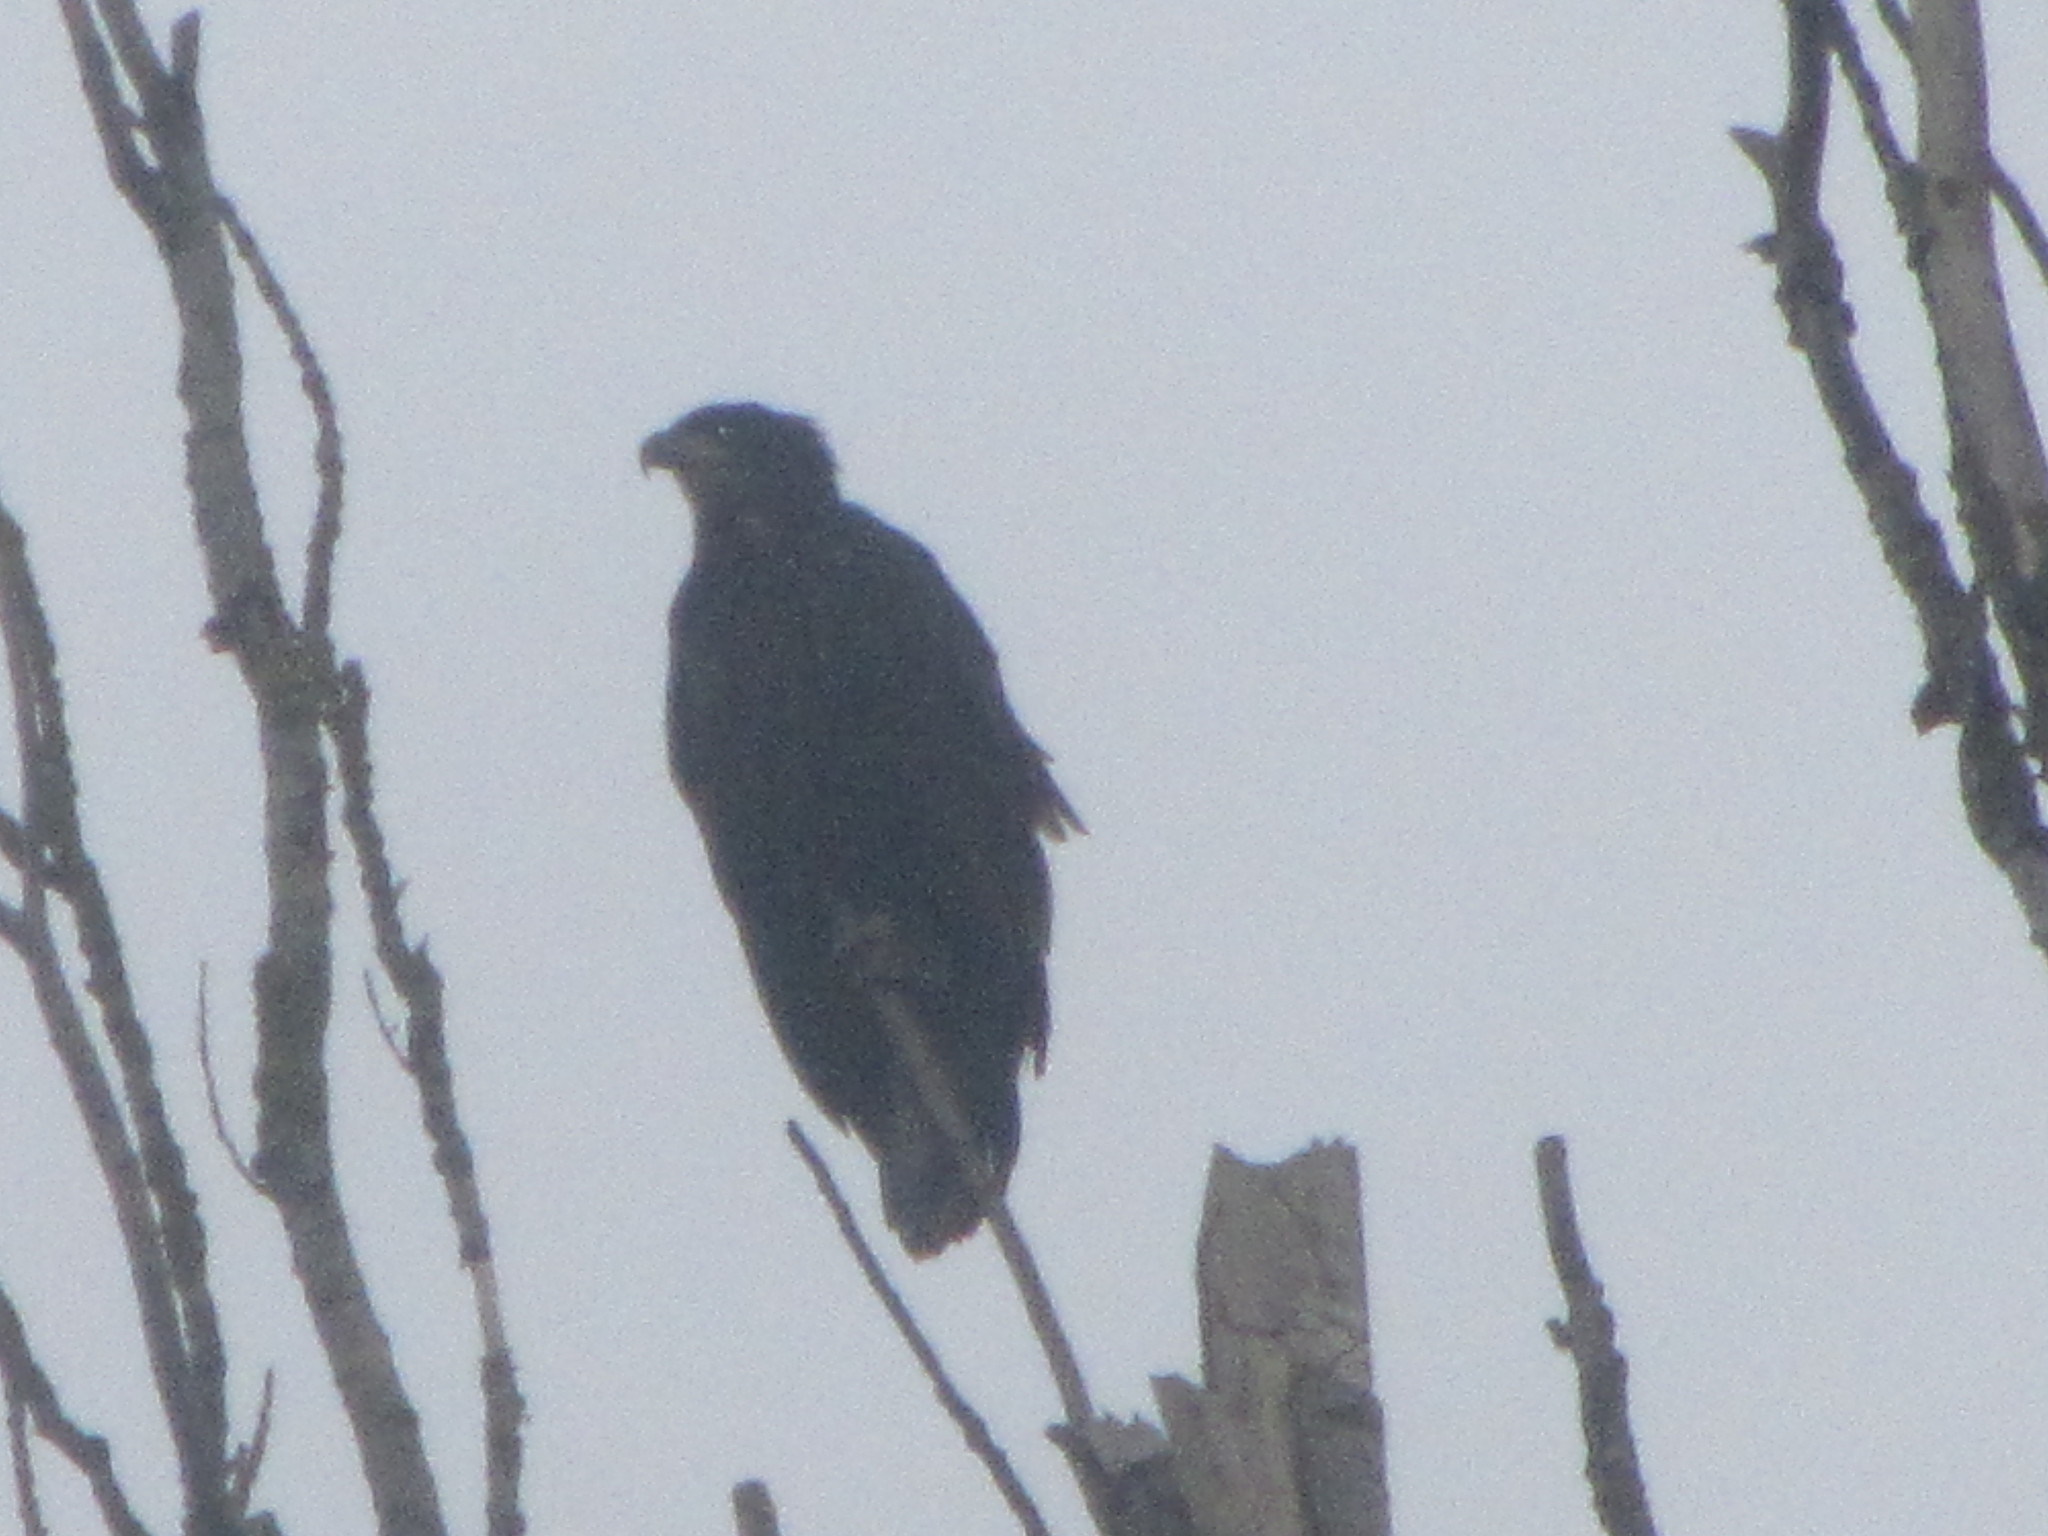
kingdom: Animalia
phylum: Chordata
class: Aves
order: Accipitriformes
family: Accipitridae
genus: Haliaeetus
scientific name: Haliaeetus leucocephalus
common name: Bald eagle
